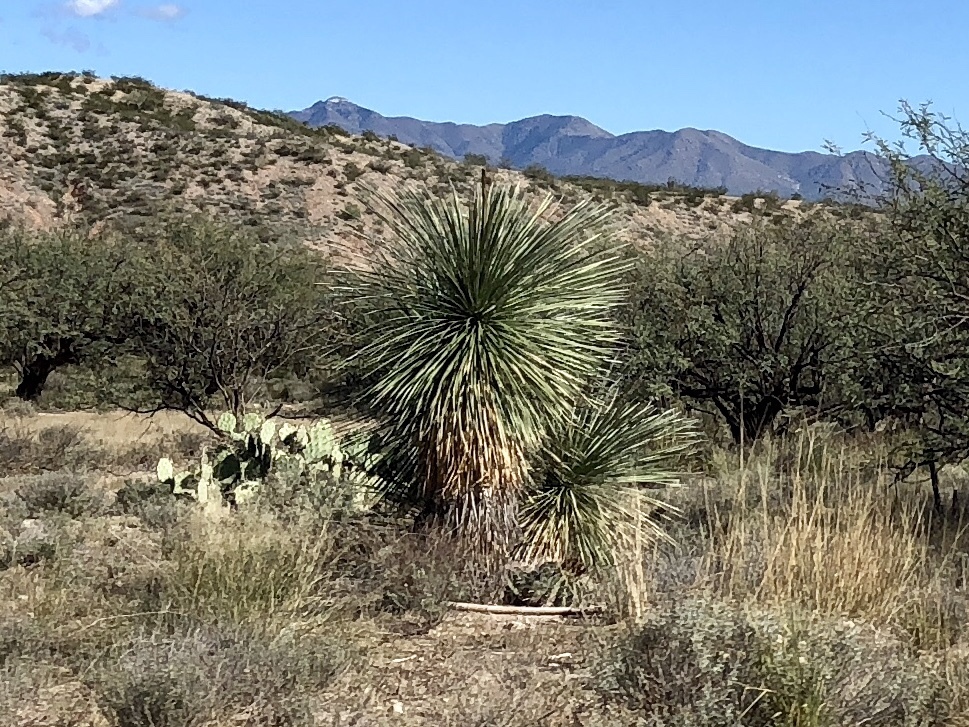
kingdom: Plantae
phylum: Tracheophyta
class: Liliopsida
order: Asparagales
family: Asparagaceae
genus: Yucca
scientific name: Yucca elata
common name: Palmella
